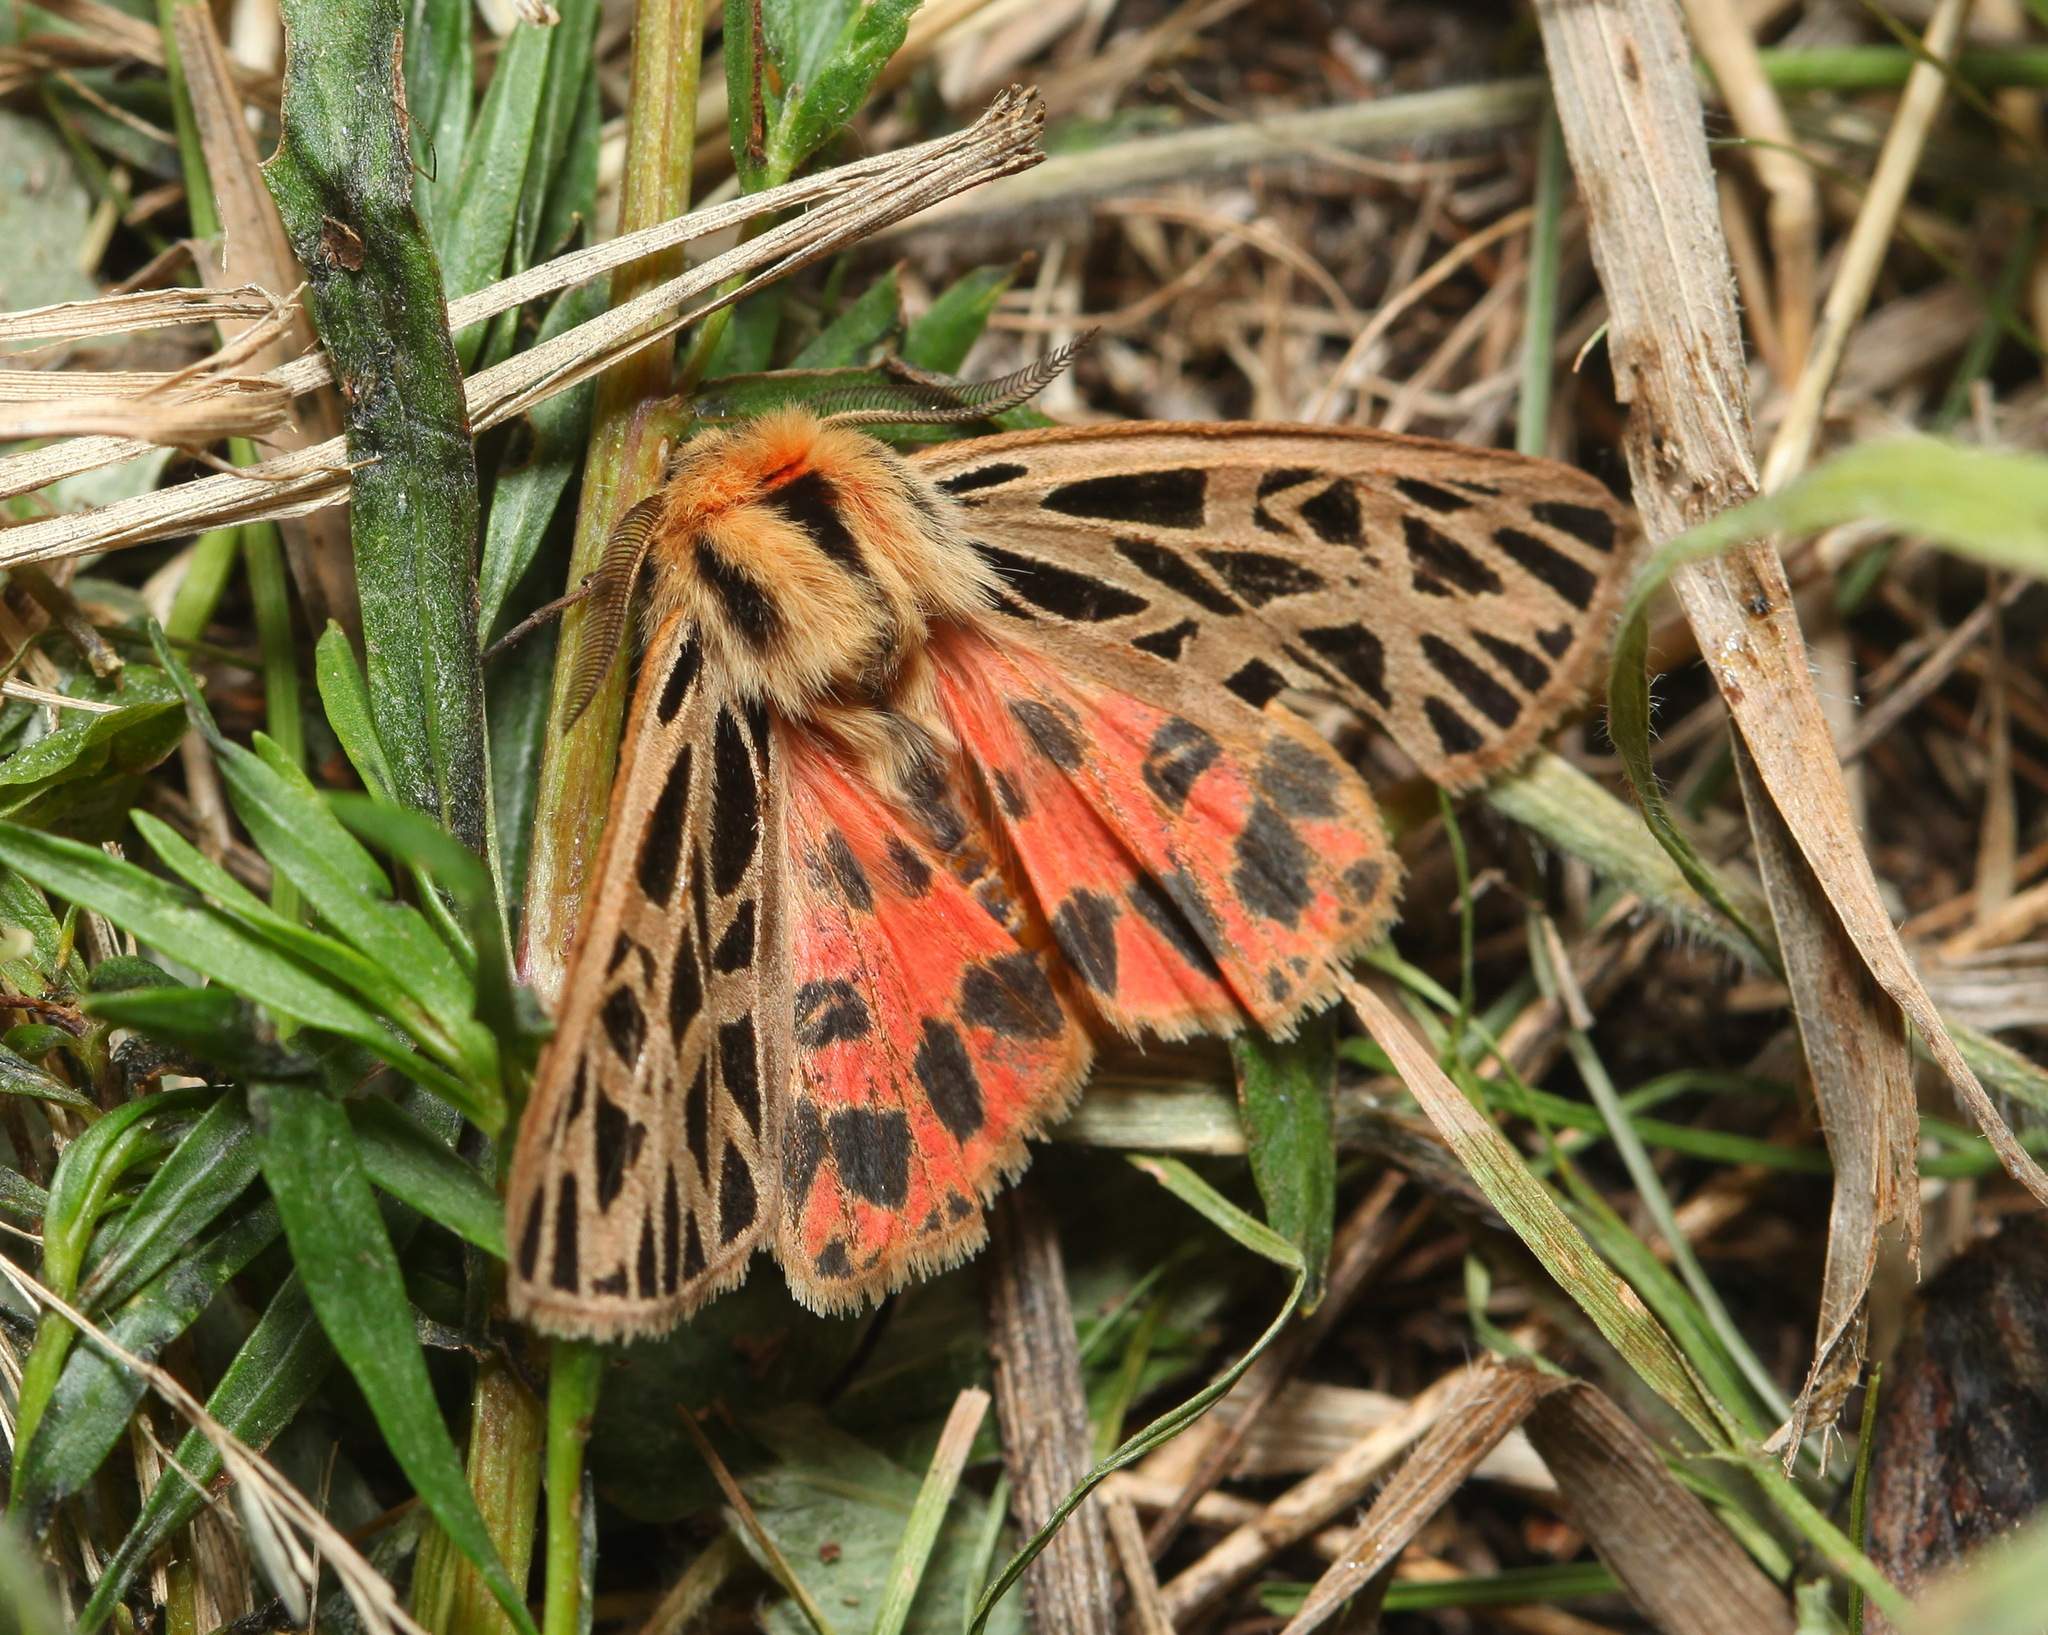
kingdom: Animalia
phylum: Arthropoda
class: Insecta
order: Lepidoptera
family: Erebidae
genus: Chelis
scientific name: Chelis dahurica
